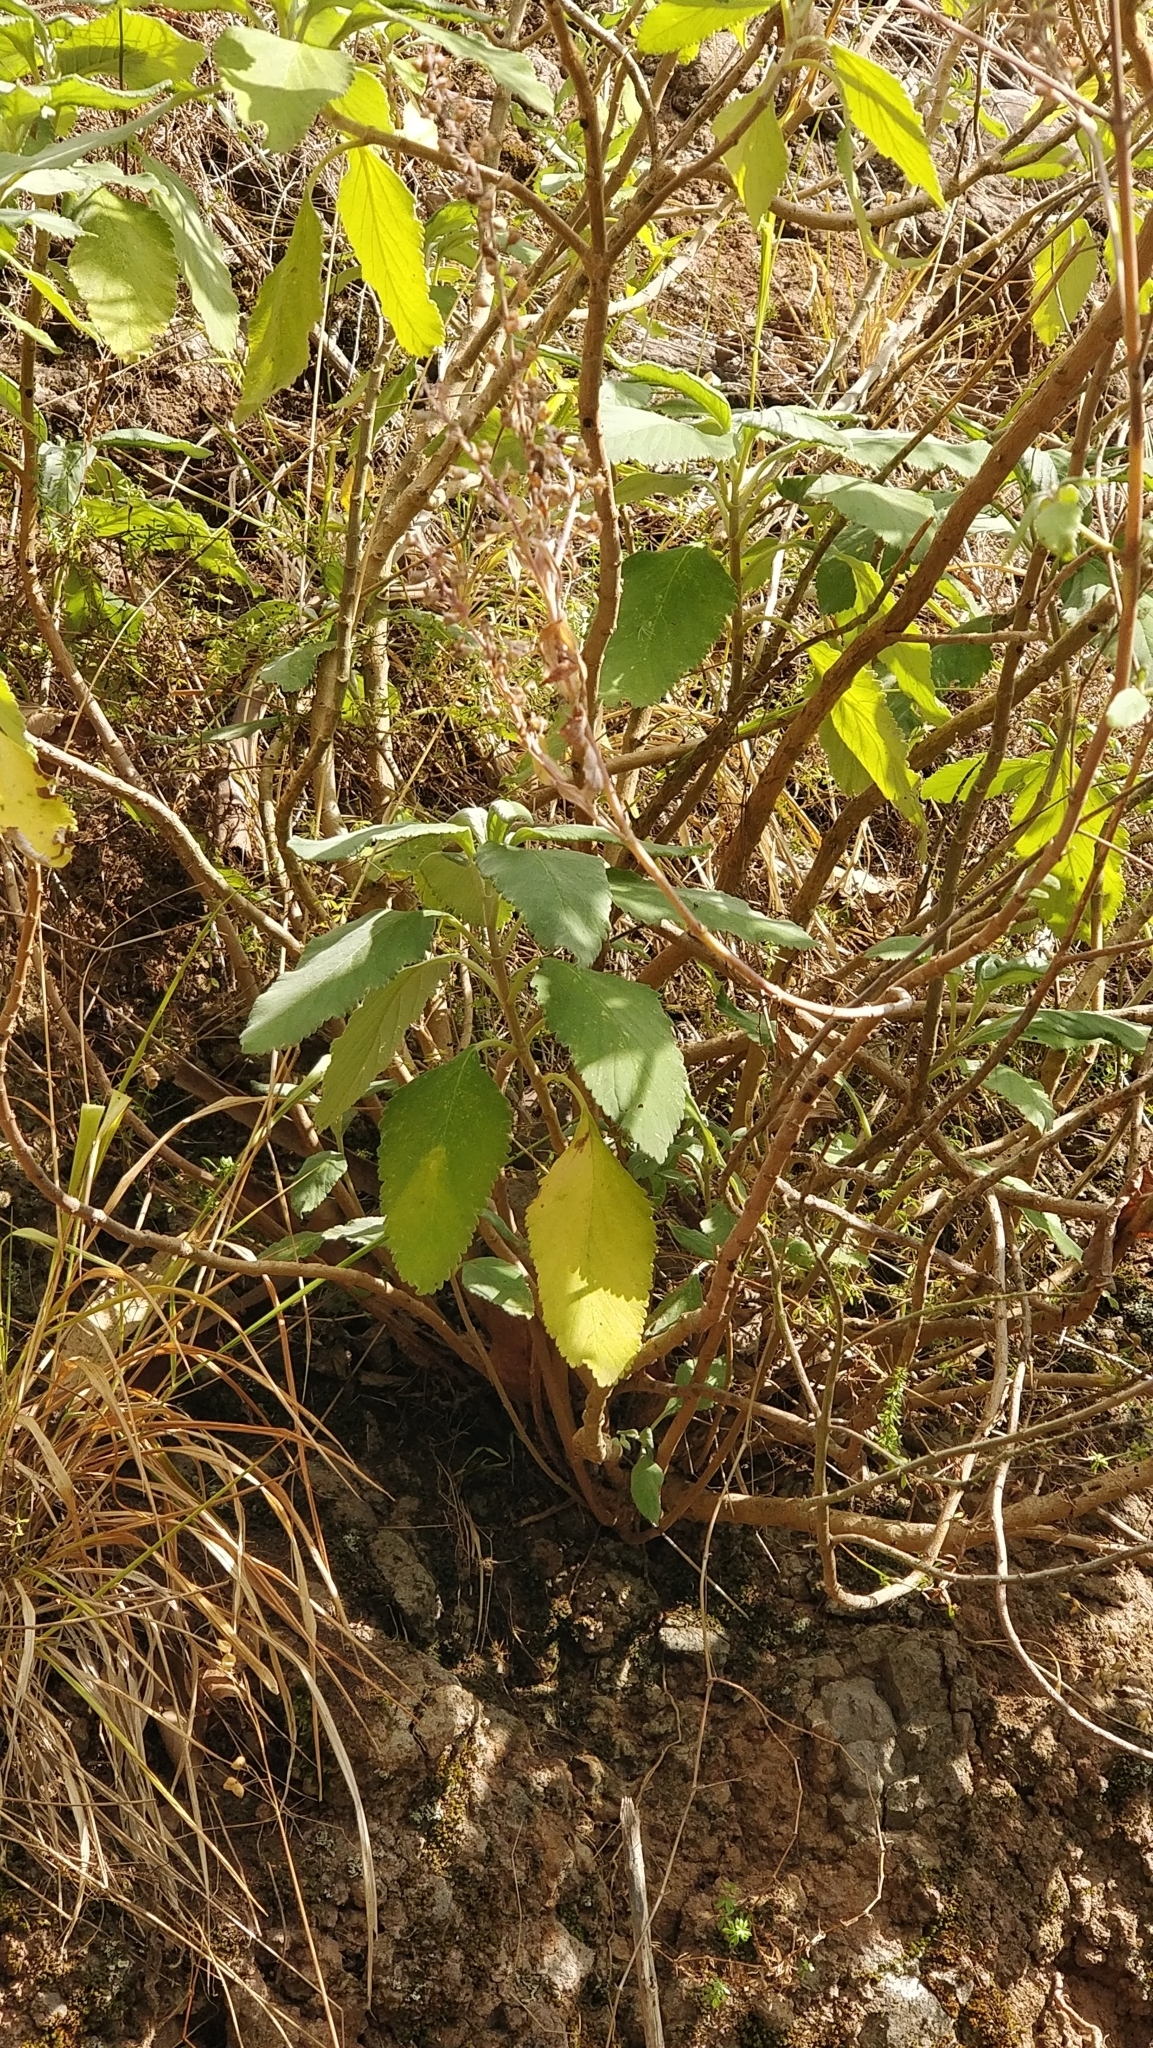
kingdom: Plantae
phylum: Tracheophyta
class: Magnoliopsida
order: Lamiales
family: Lamiaceae
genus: Teucrium
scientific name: Teucrium betonicum
